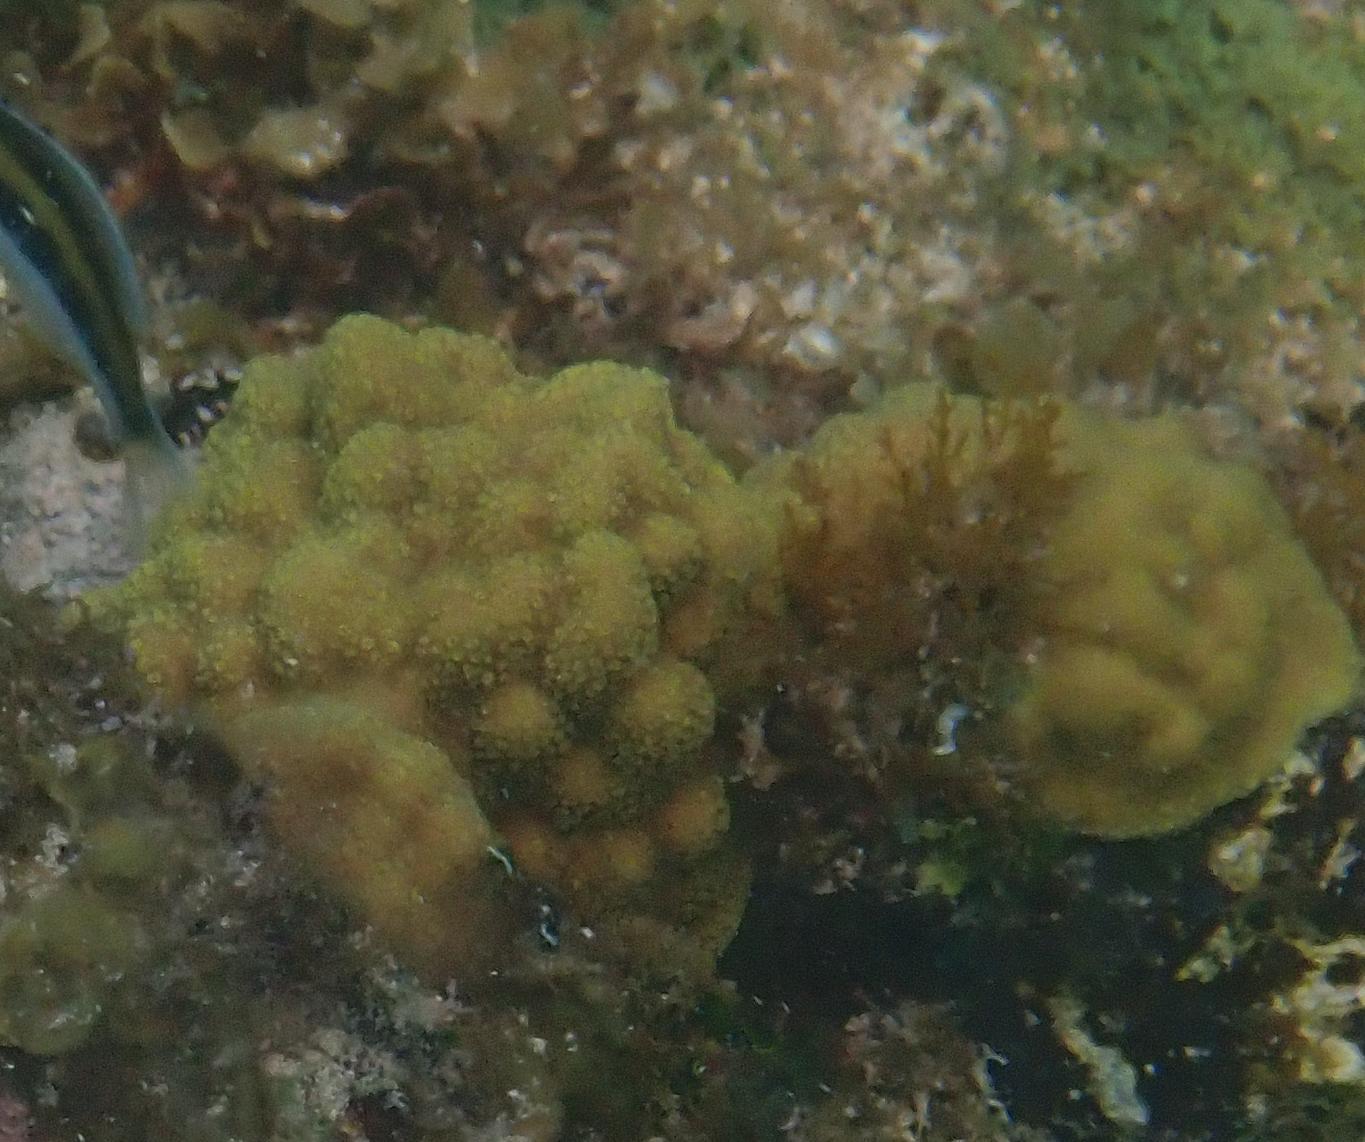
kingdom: Animalia
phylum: Cnidaria
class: Anthozoa
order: Scleractinia
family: Poritidae
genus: Porites
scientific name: Porites astreoides
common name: Mustard hill coral
